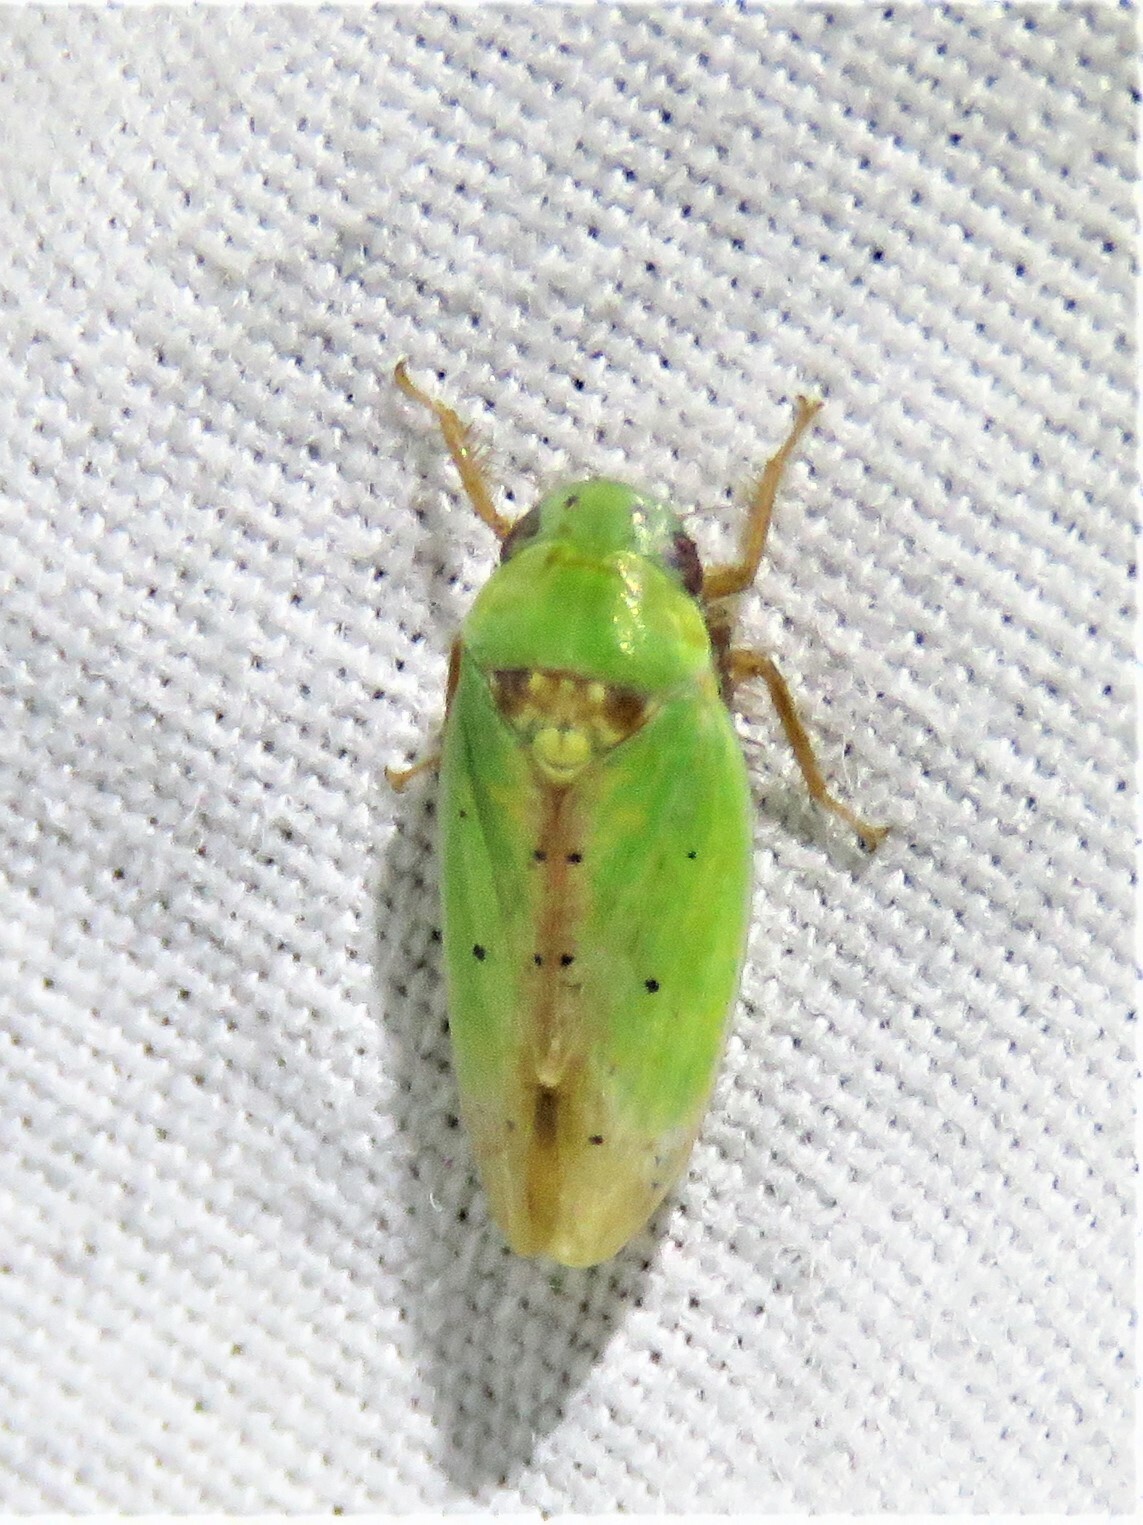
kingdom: Animalia
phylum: Arthropoda
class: Insecta
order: Hemiptera
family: Cicadellidae
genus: Ponana
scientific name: Ponana
